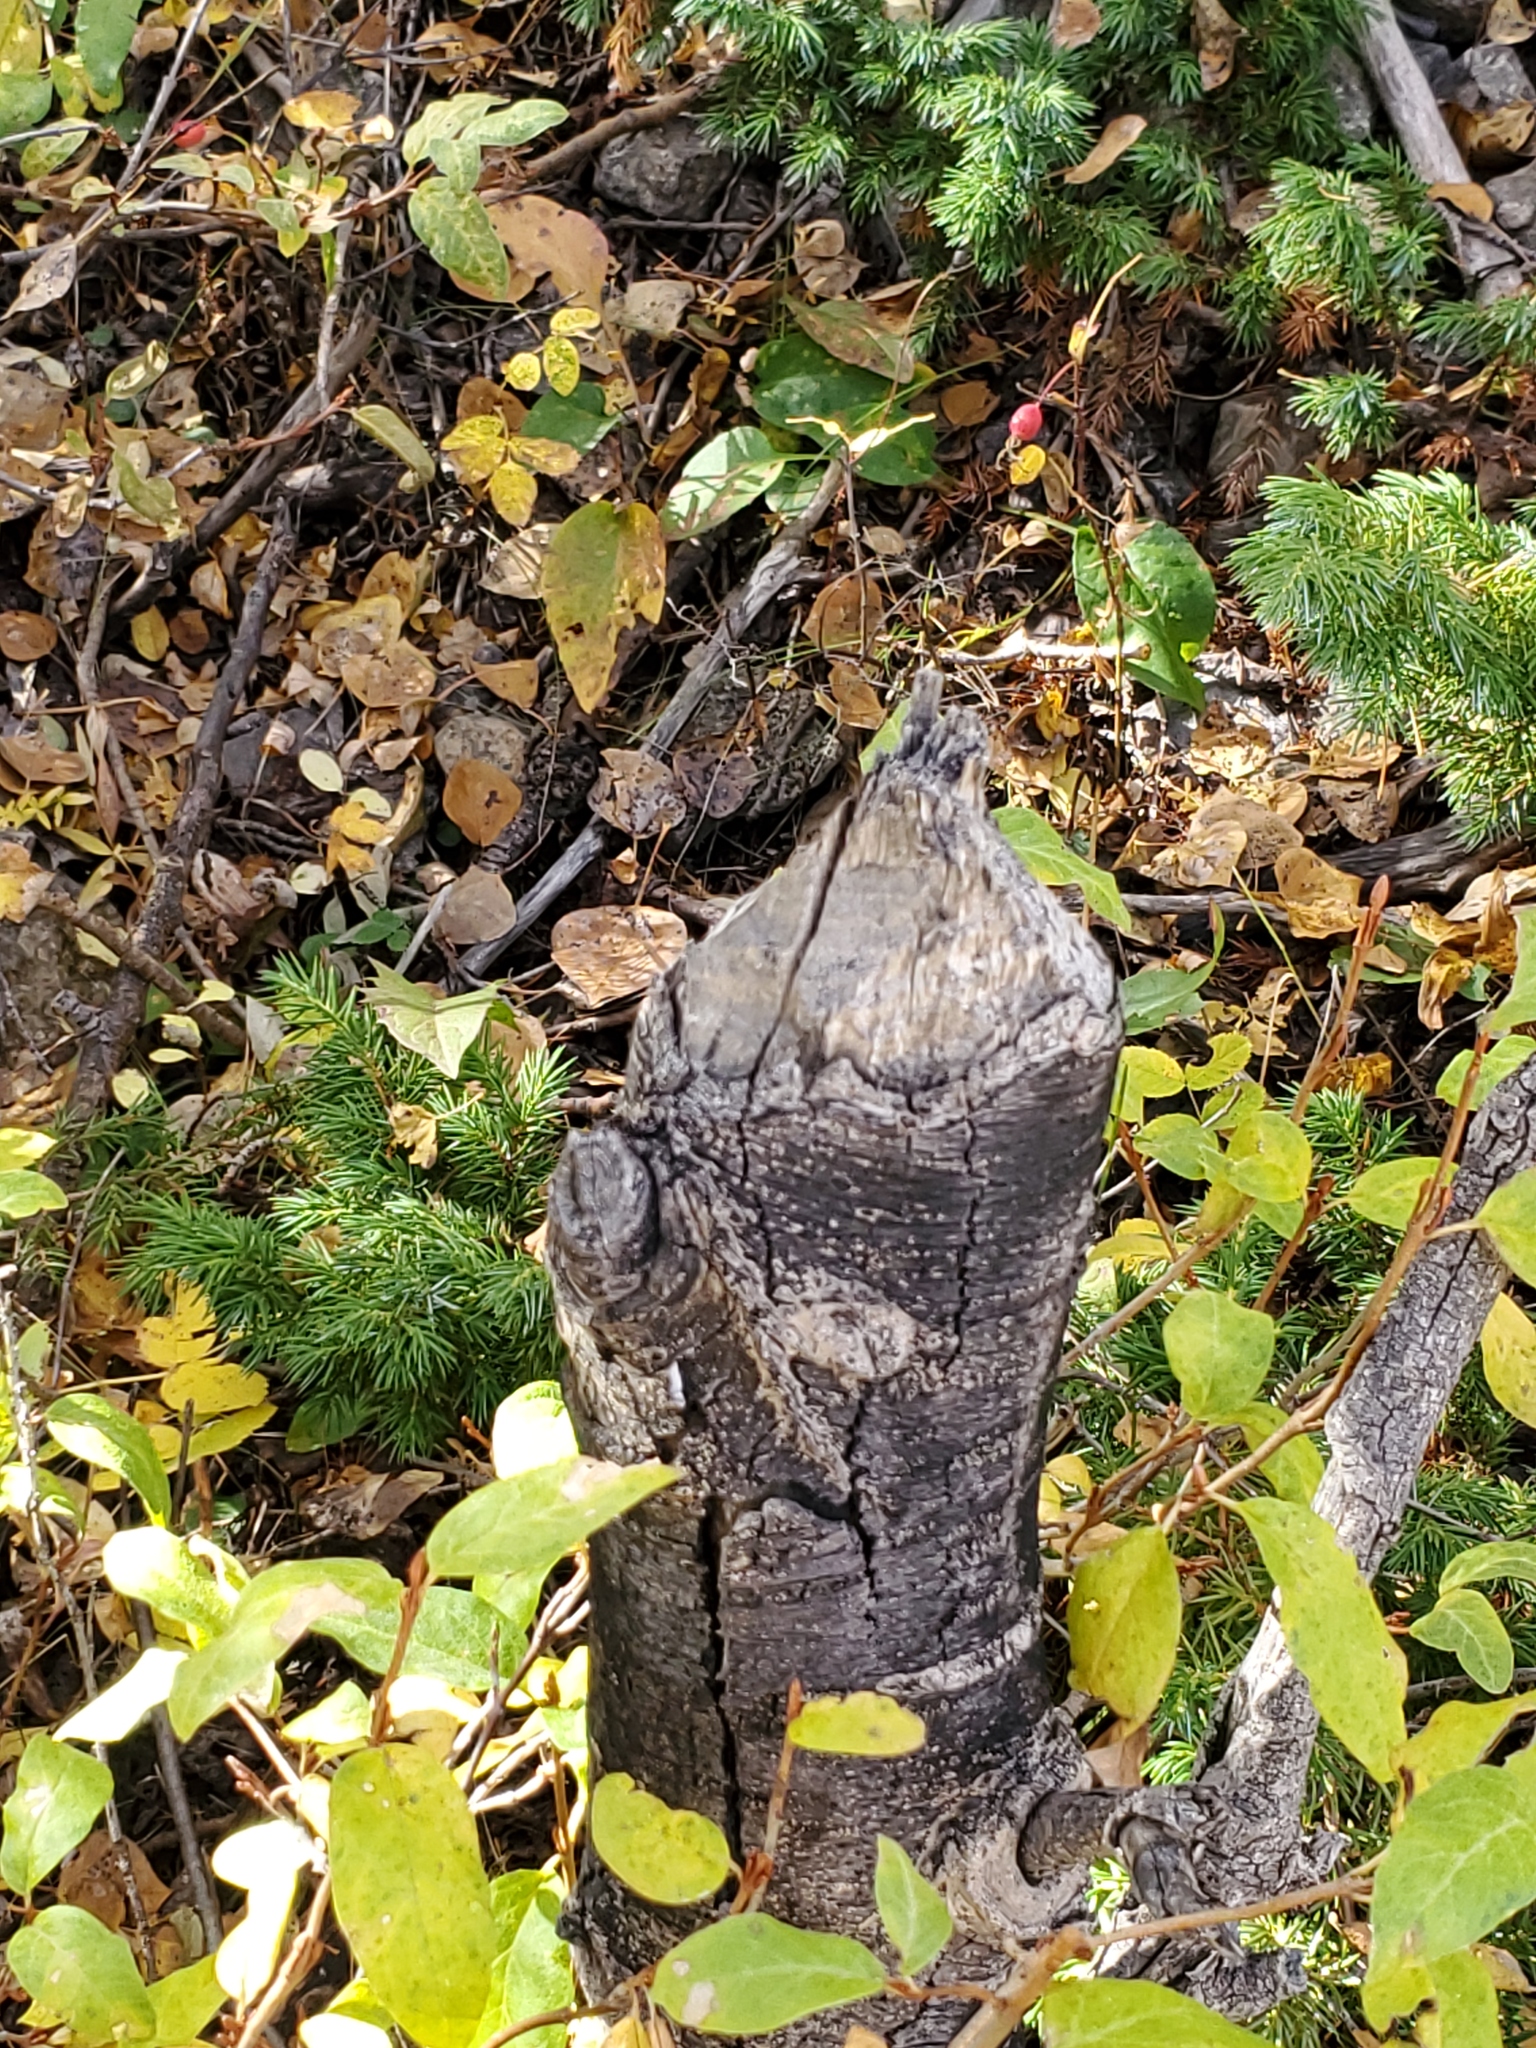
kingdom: Animalia
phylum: Chordata
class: Mammalia
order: Rodentia
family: Castoridae
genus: Castor
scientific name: Castor canadensis
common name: American beaver
